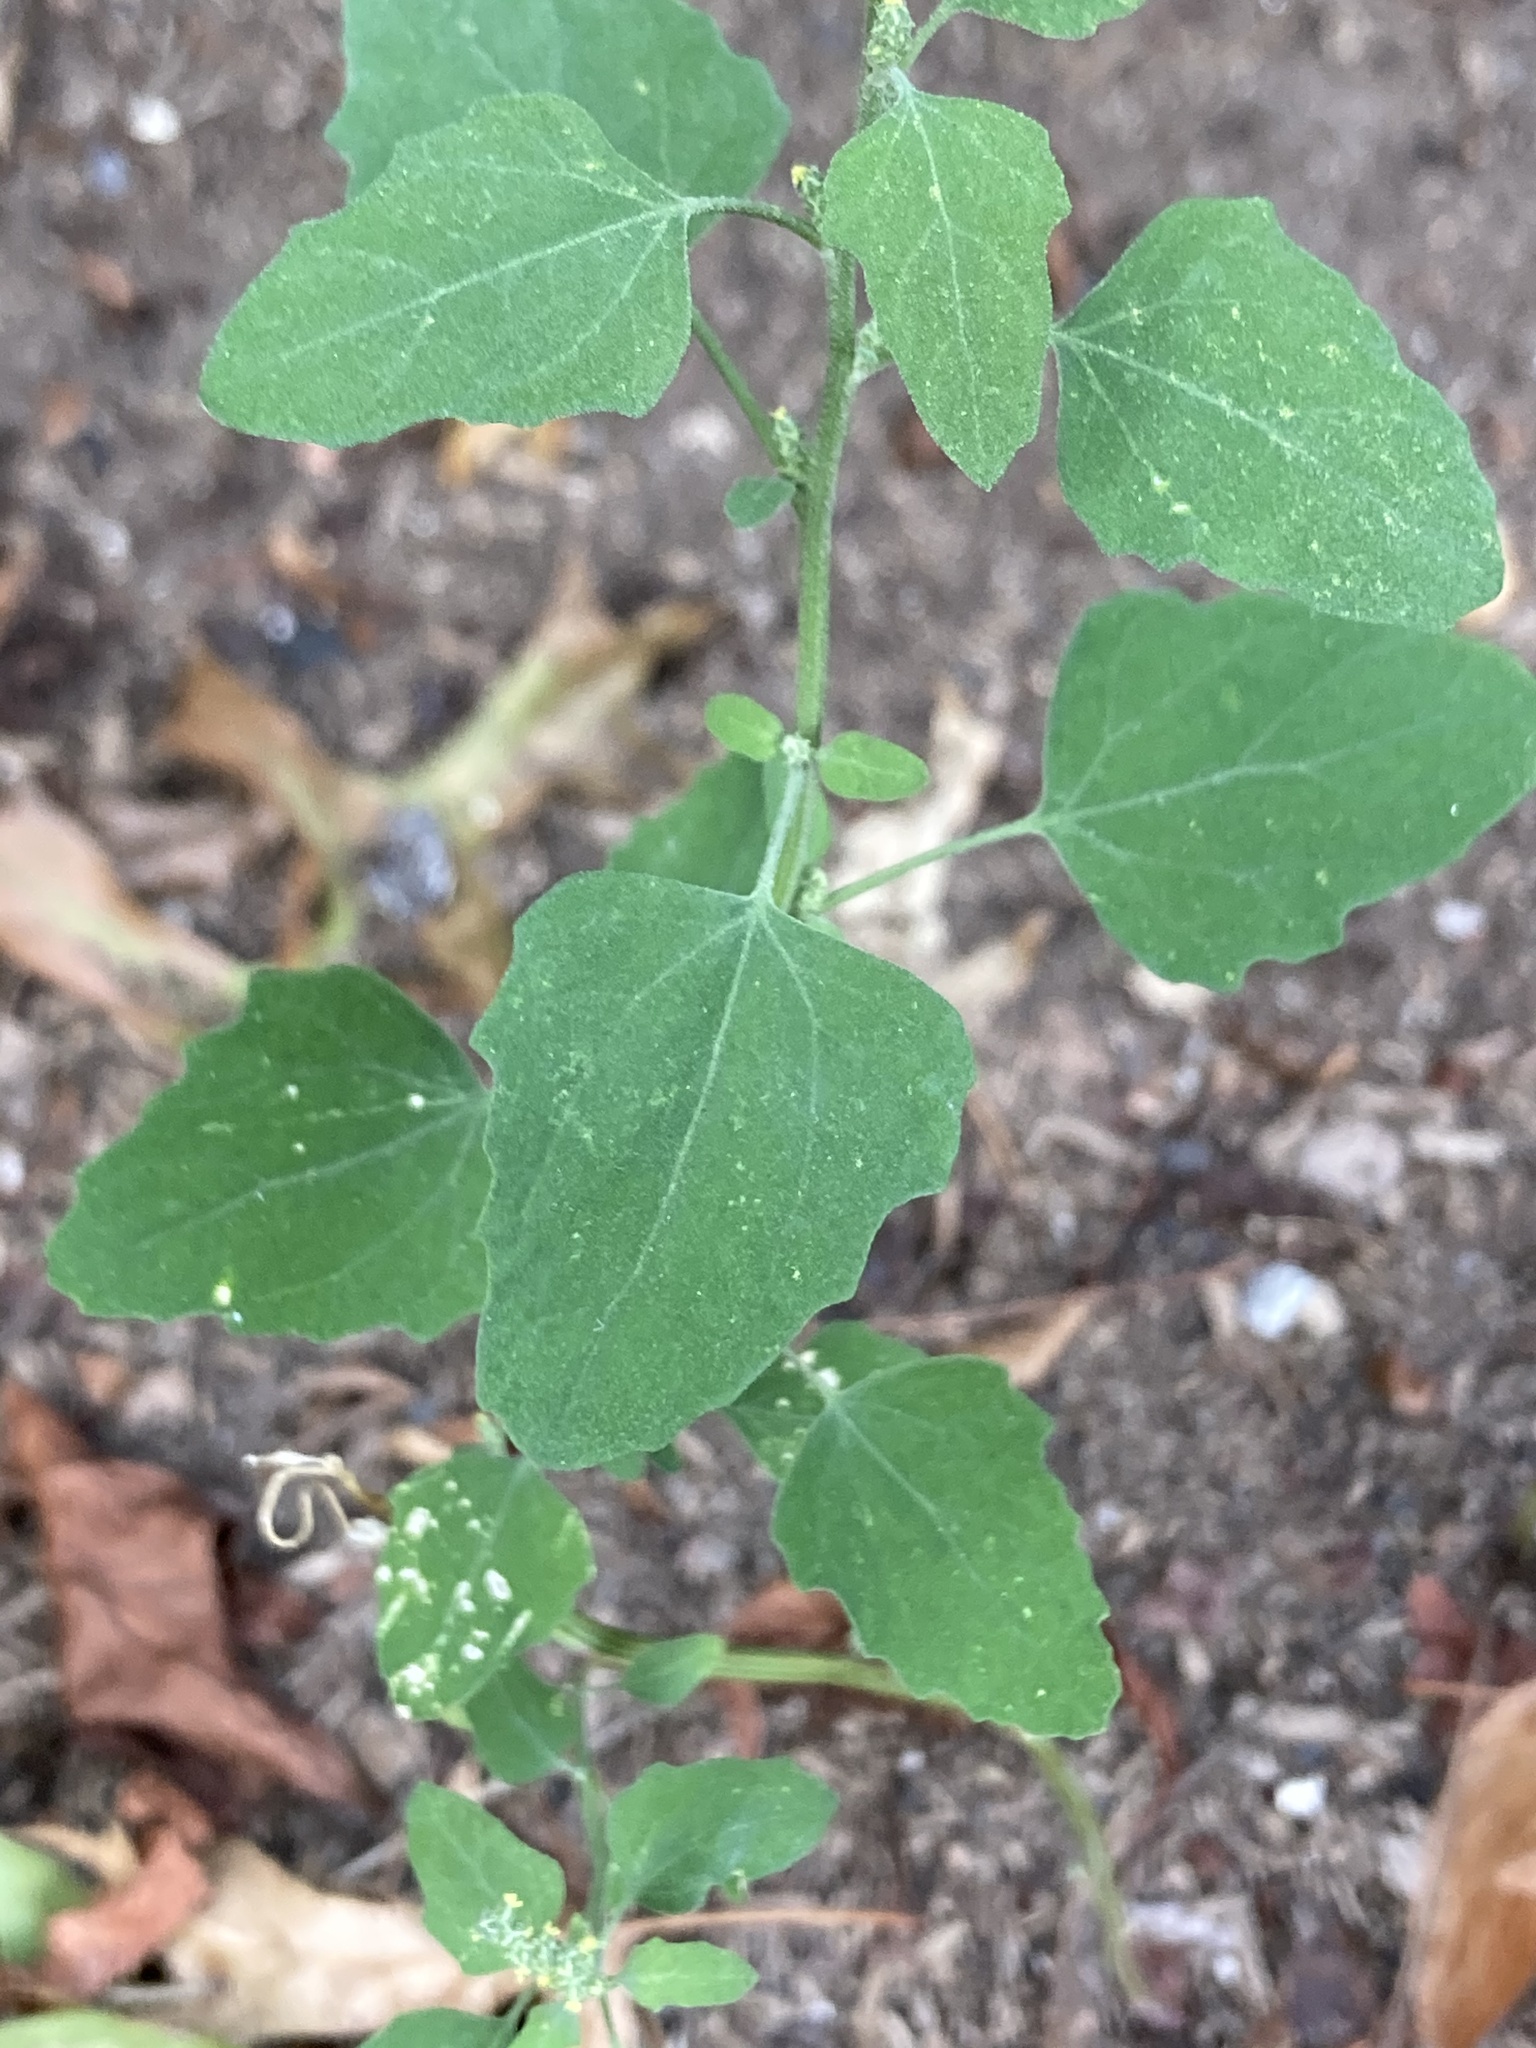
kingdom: Plantae
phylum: Tracheophyta
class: Magnoliopsida
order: Caryophyllales
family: Amaranthaceae
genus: Chenopodium
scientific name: Chenopodium album
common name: Fat-hen
